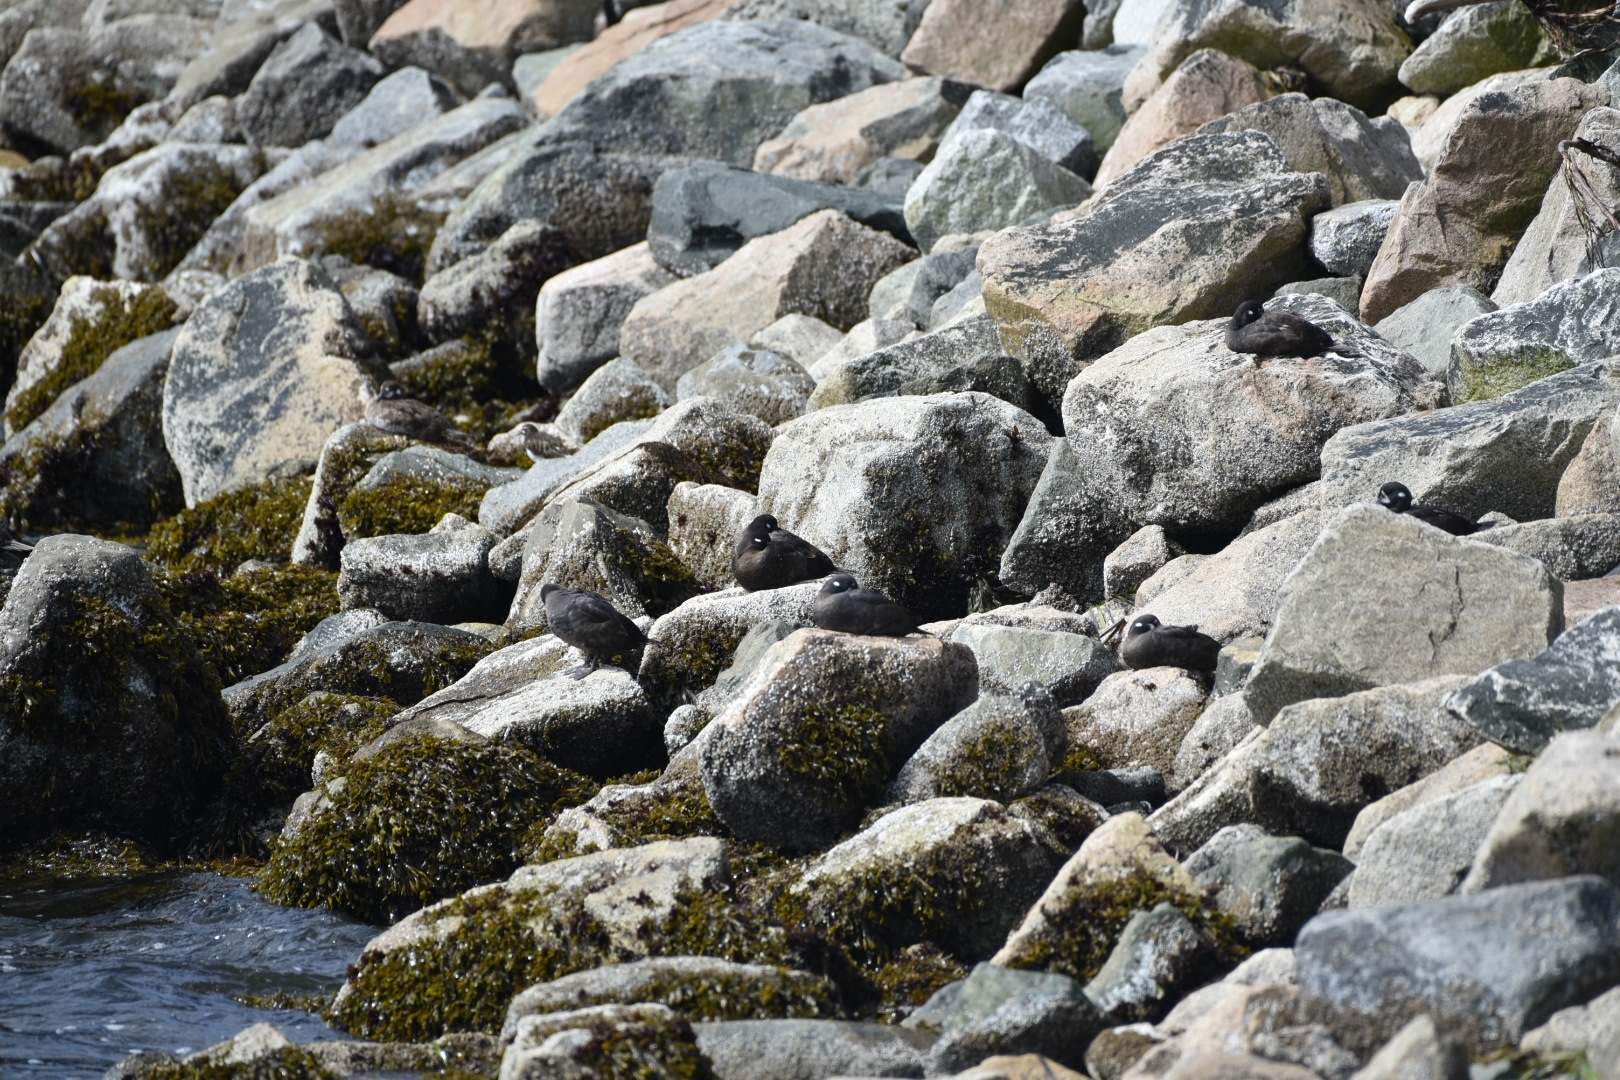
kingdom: Animalia
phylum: Chordata
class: Aves
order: Anseriformes
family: Anatidae
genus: Histrionicus
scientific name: Histrionicus histrionicus
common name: Harlequin duck
